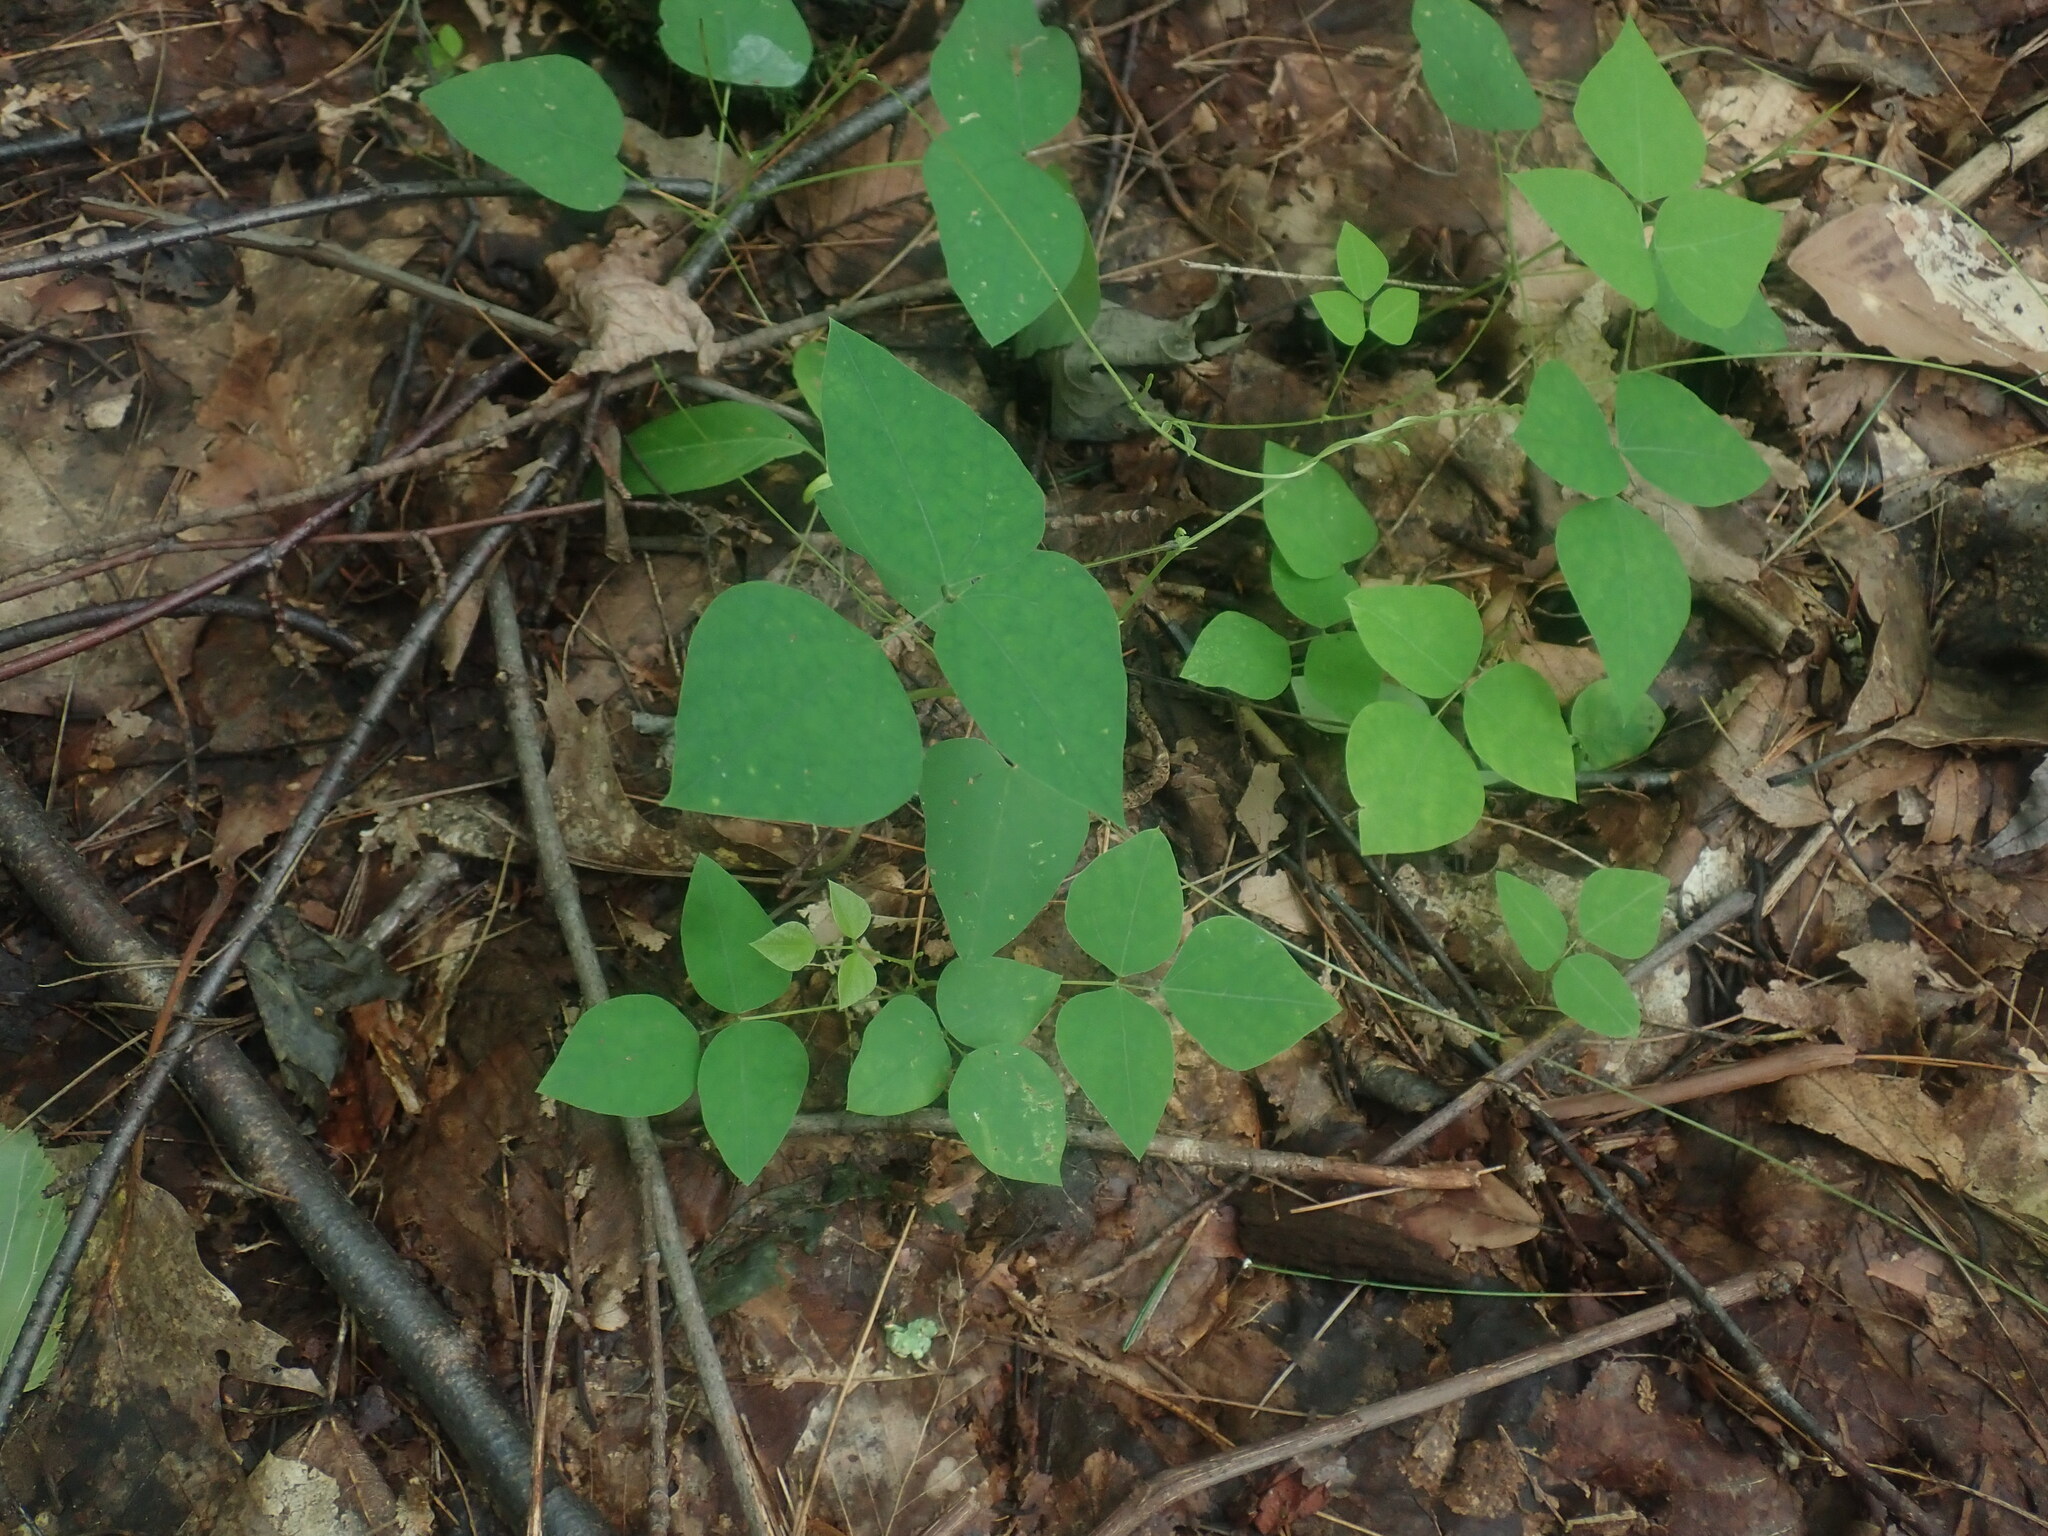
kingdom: Plantae
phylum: Tracheophyta
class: Magnoliopsida
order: Fabales
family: Fabaceae
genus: Amphicarpaea
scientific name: Amphicarpaea bracteata
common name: American hog peanut
